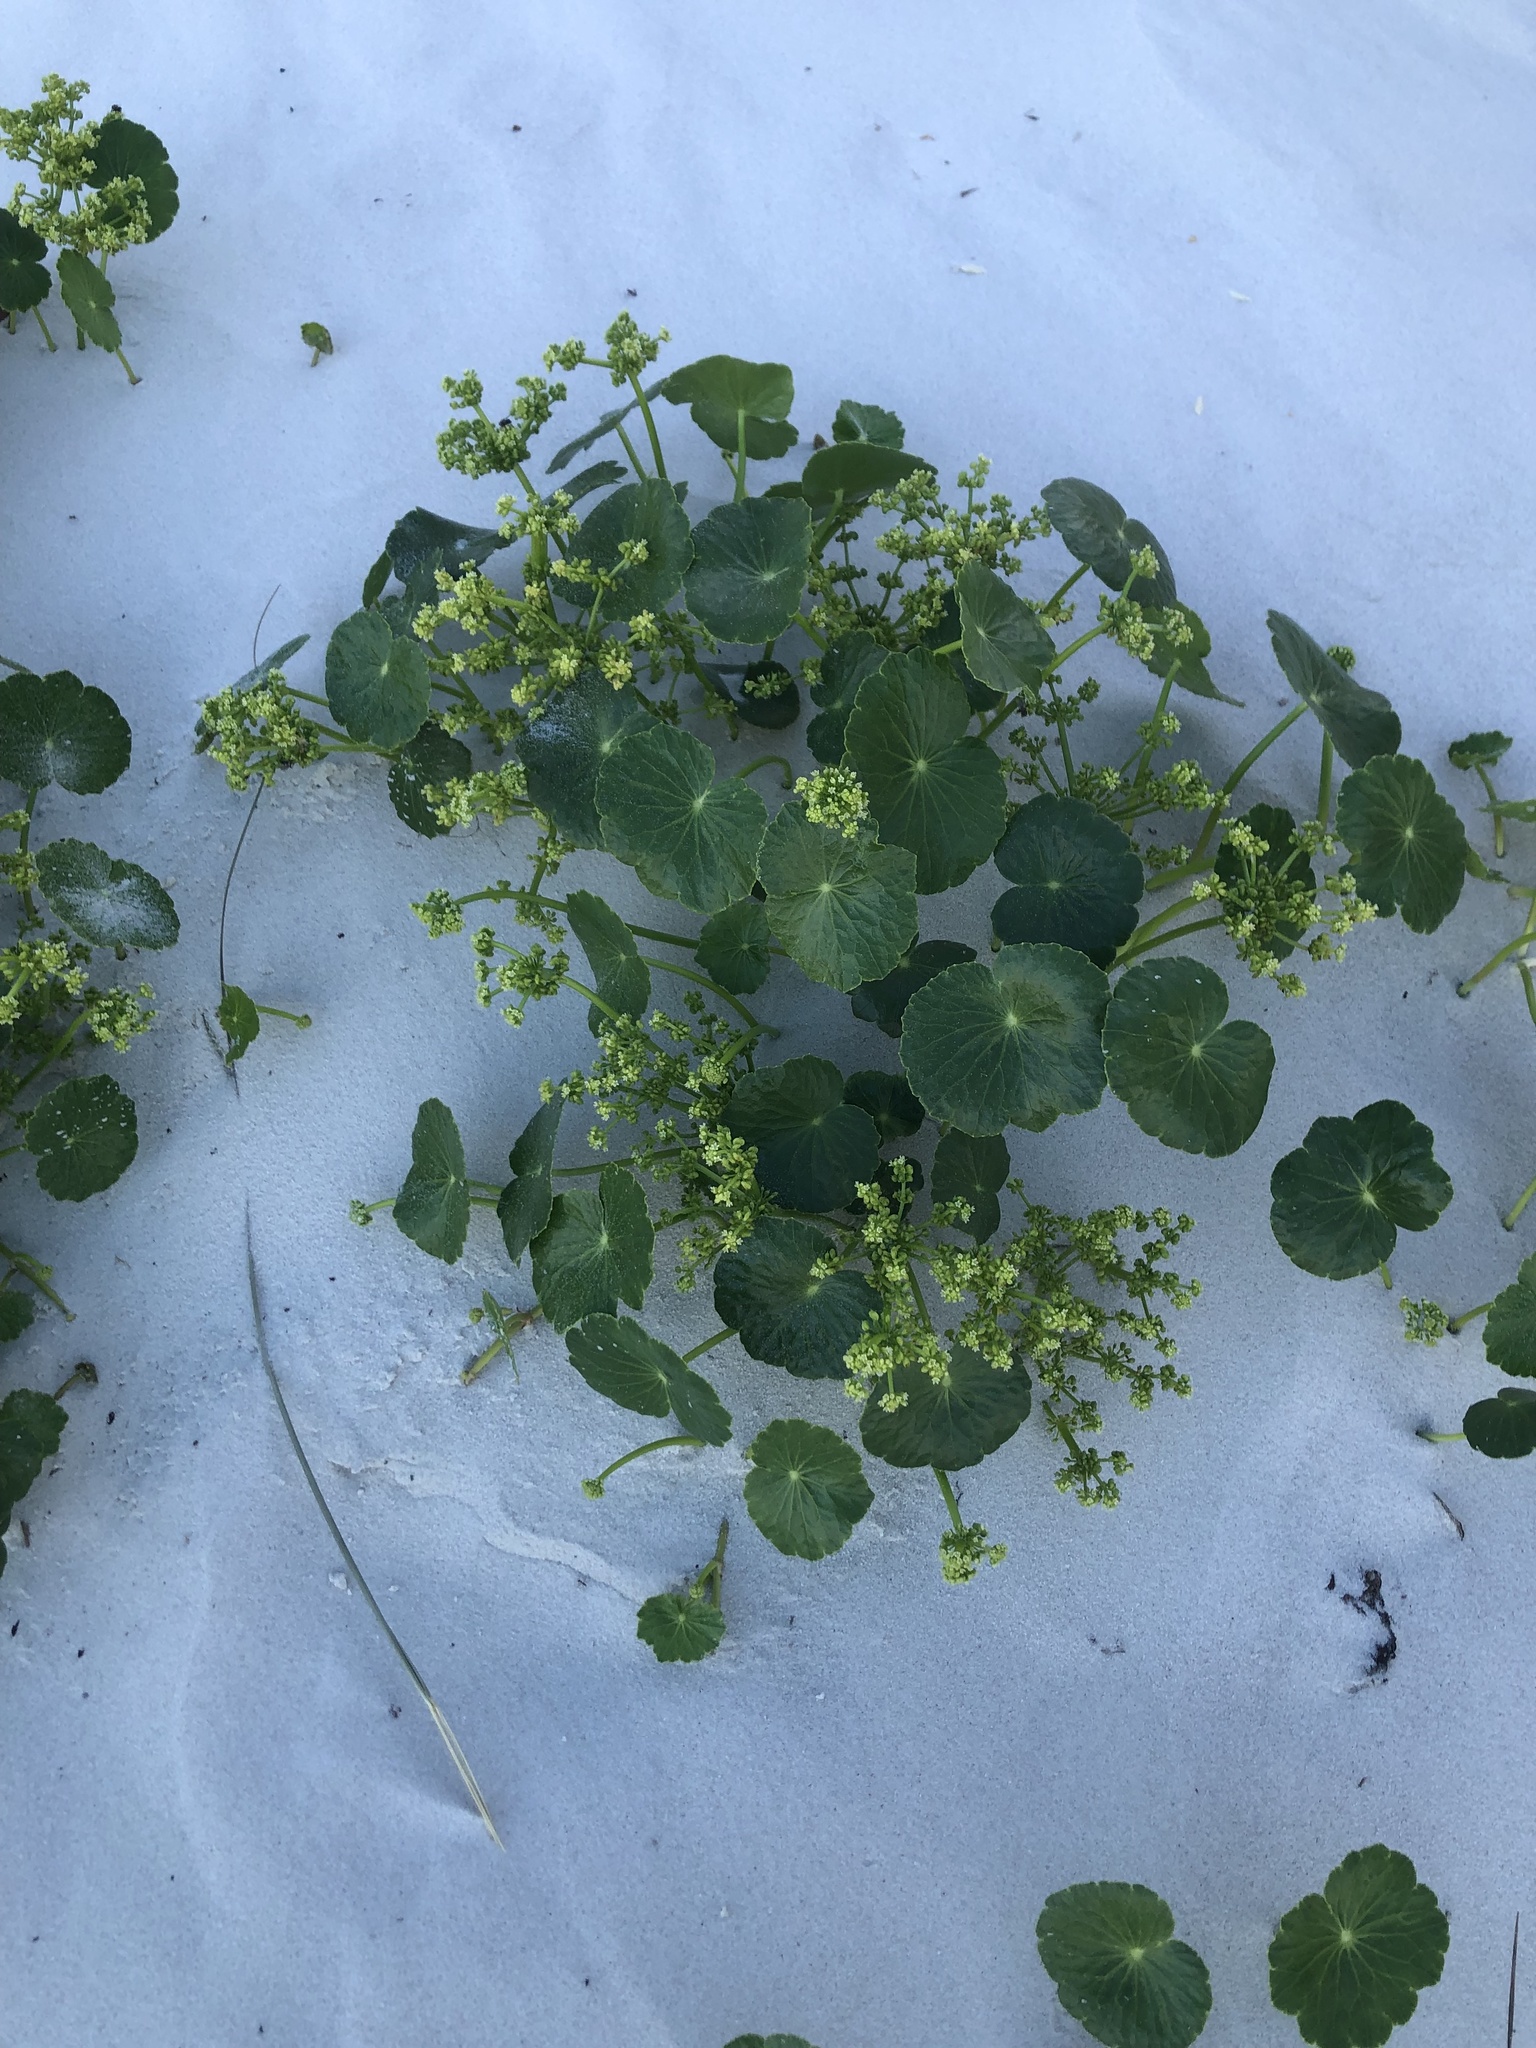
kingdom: Plantae
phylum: Tracheophyta
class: Magnoliopsida
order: Apiales
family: Araliaceae
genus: Hydrocotyle
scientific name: Hydrocotyle bonariensis
